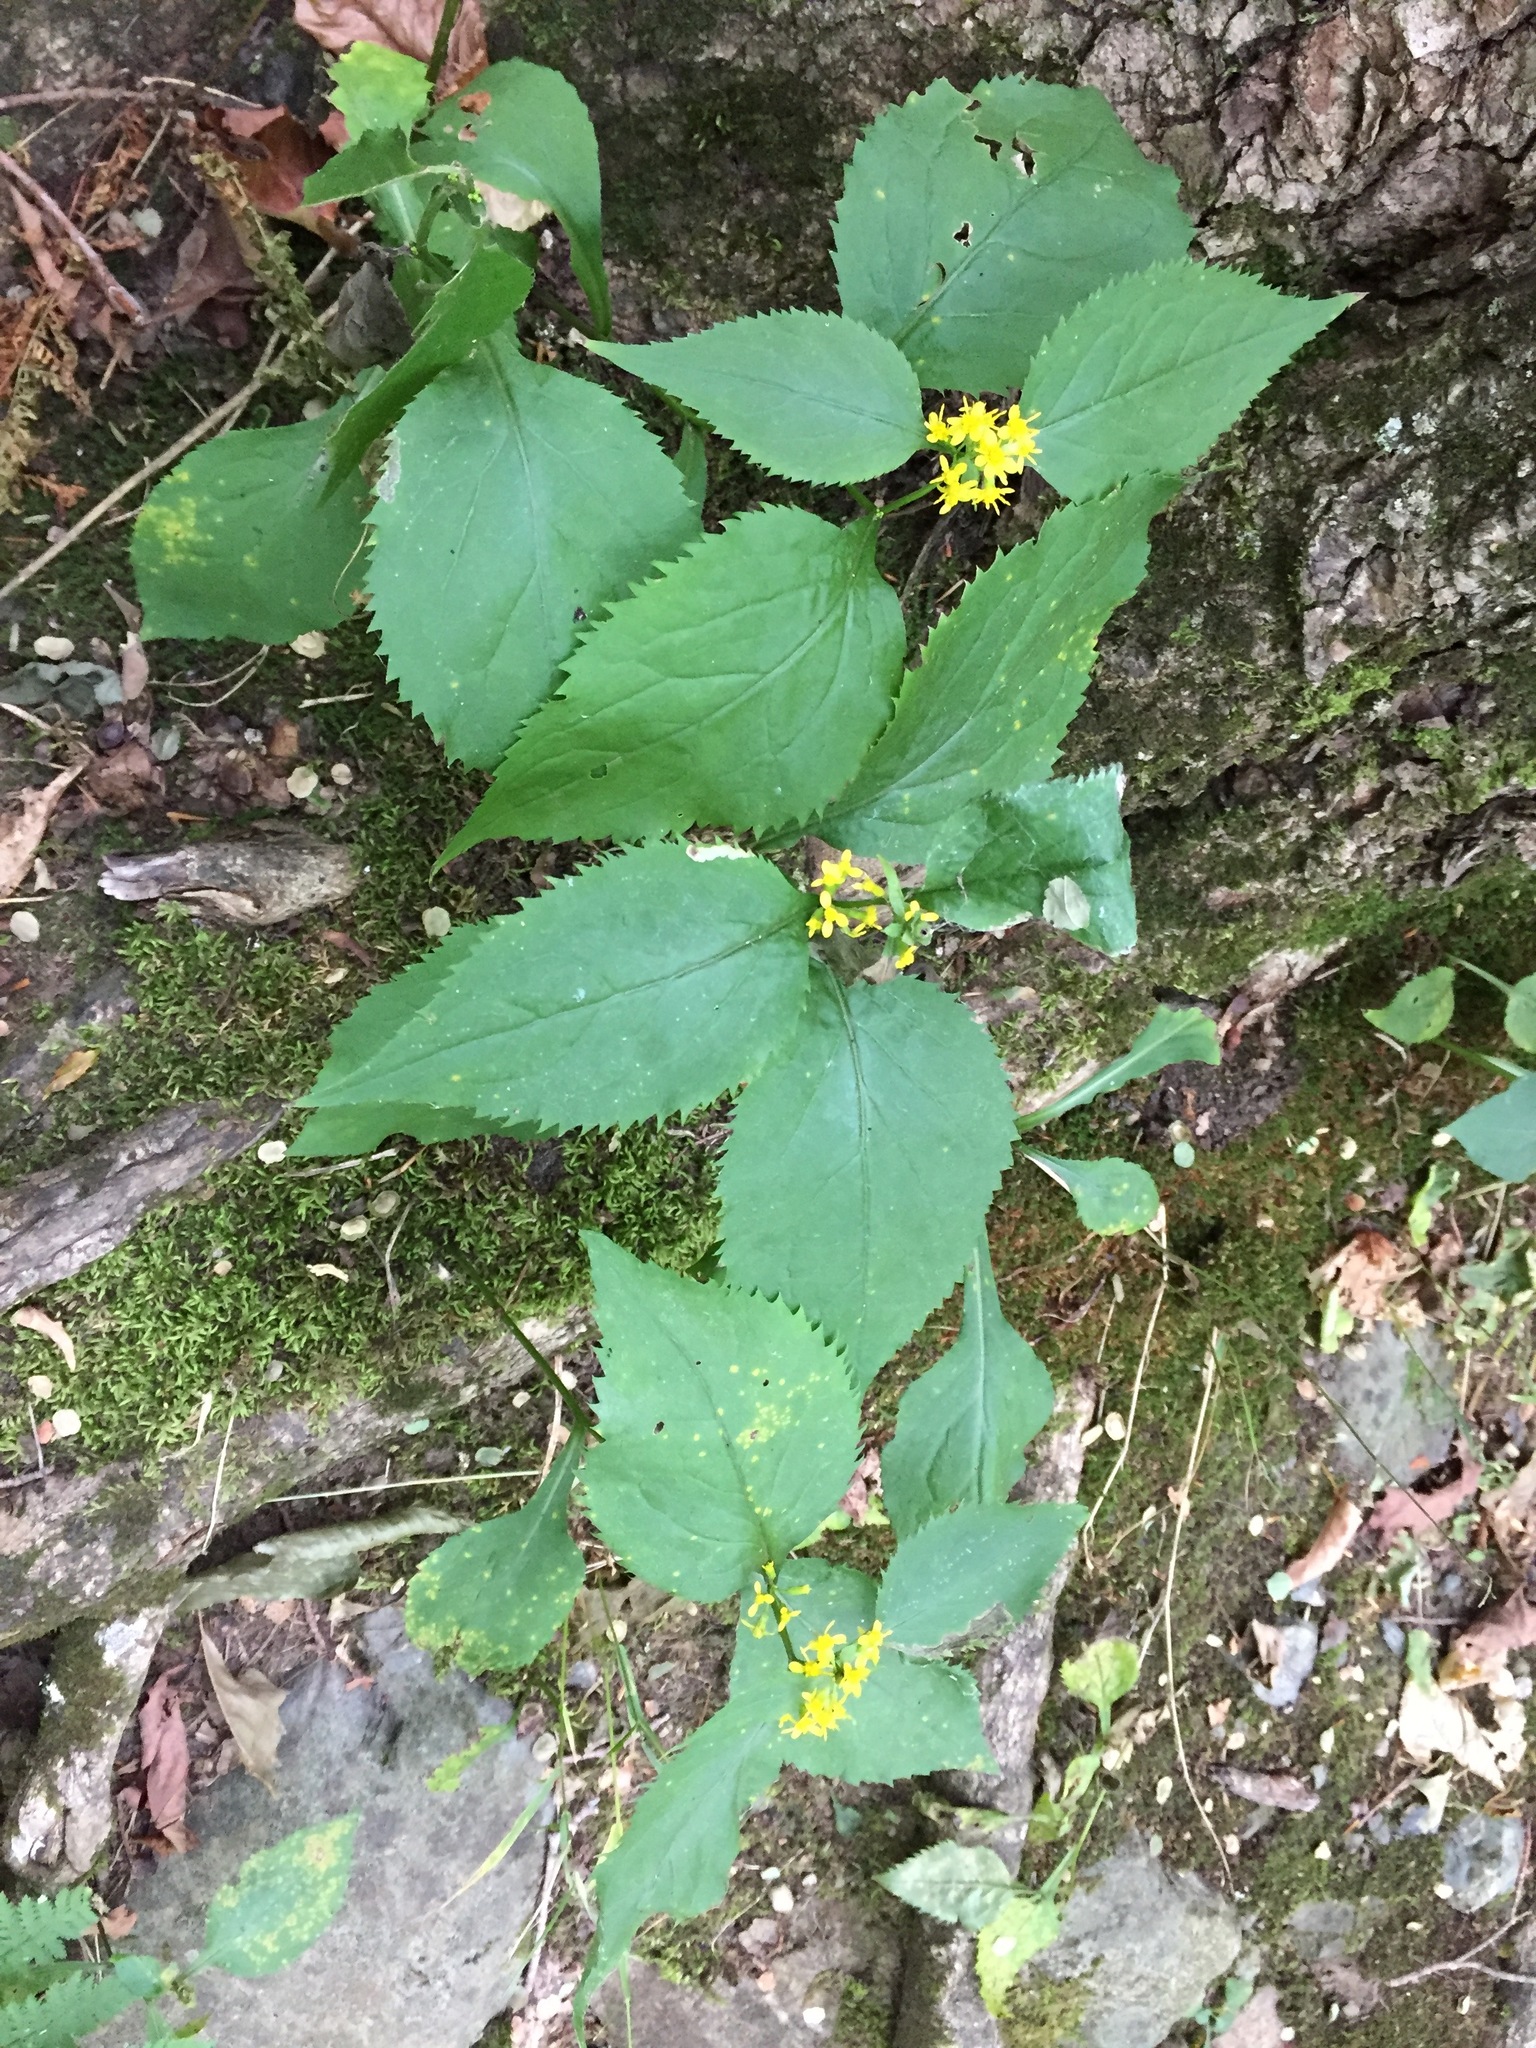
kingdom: Plantae
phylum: Tracheophyta
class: Magnoliopsida
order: Asterales
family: Asteraceae
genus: Solidago
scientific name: Solidago flexicaulis
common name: Zig-zag goldenrod
